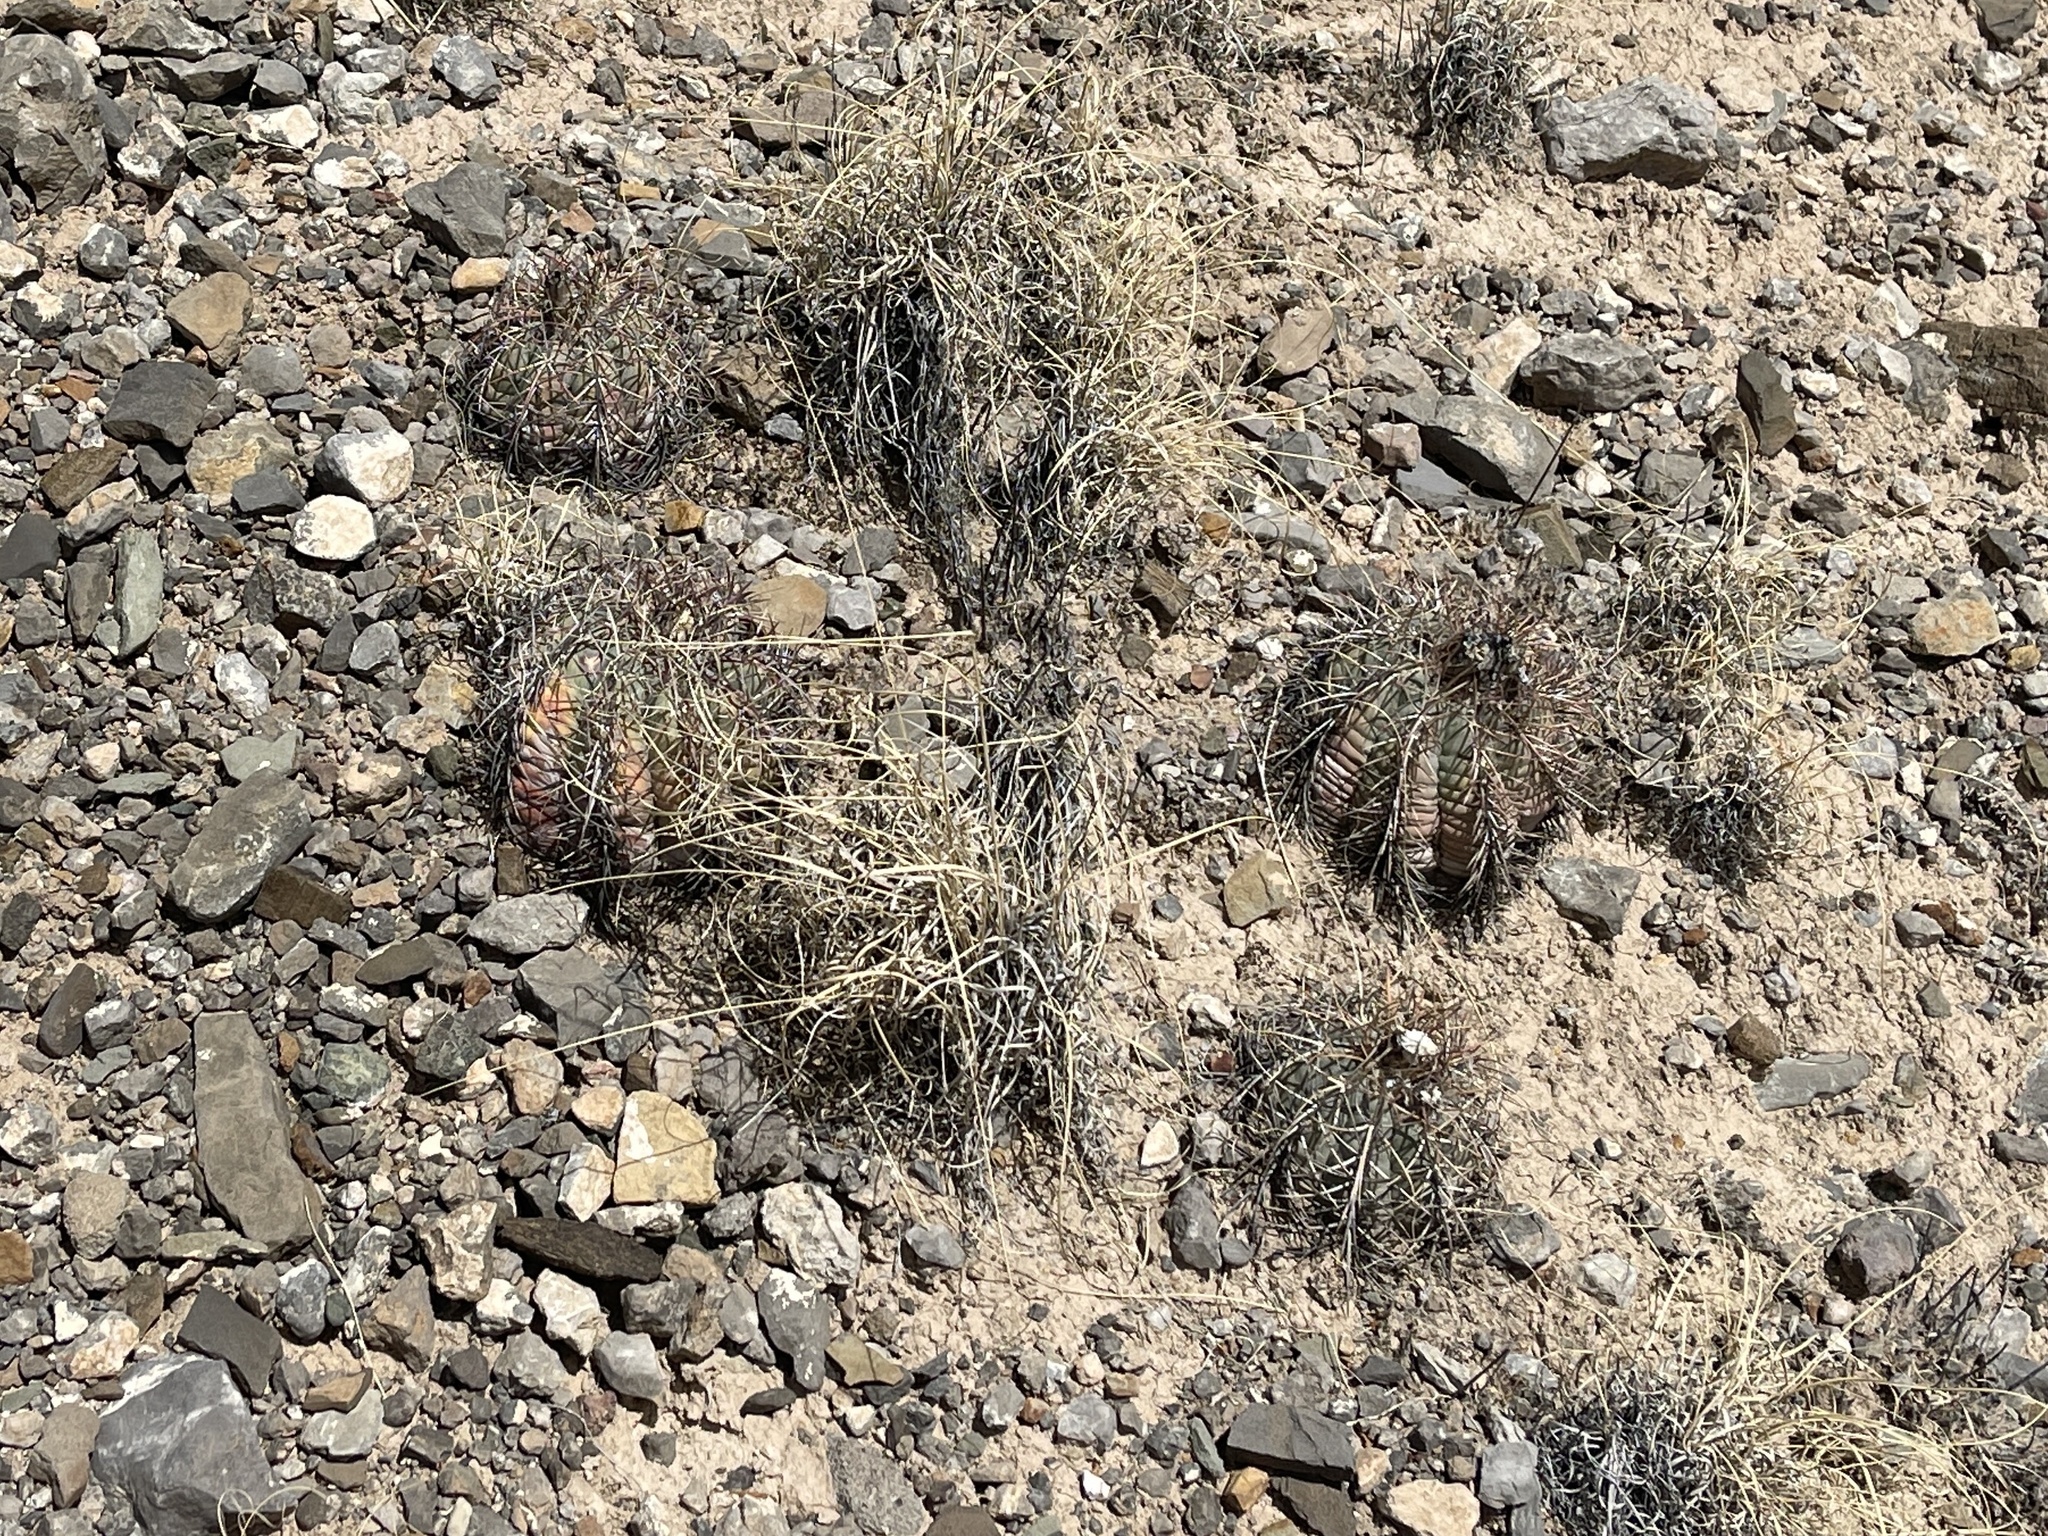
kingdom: Plantae
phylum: Tracheophyta
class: Magnoliopsida
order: Caryophyllales
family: Cactaceae
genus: Echinocactus
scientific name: Echinocactus horizonthalonius
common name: Devilshead
